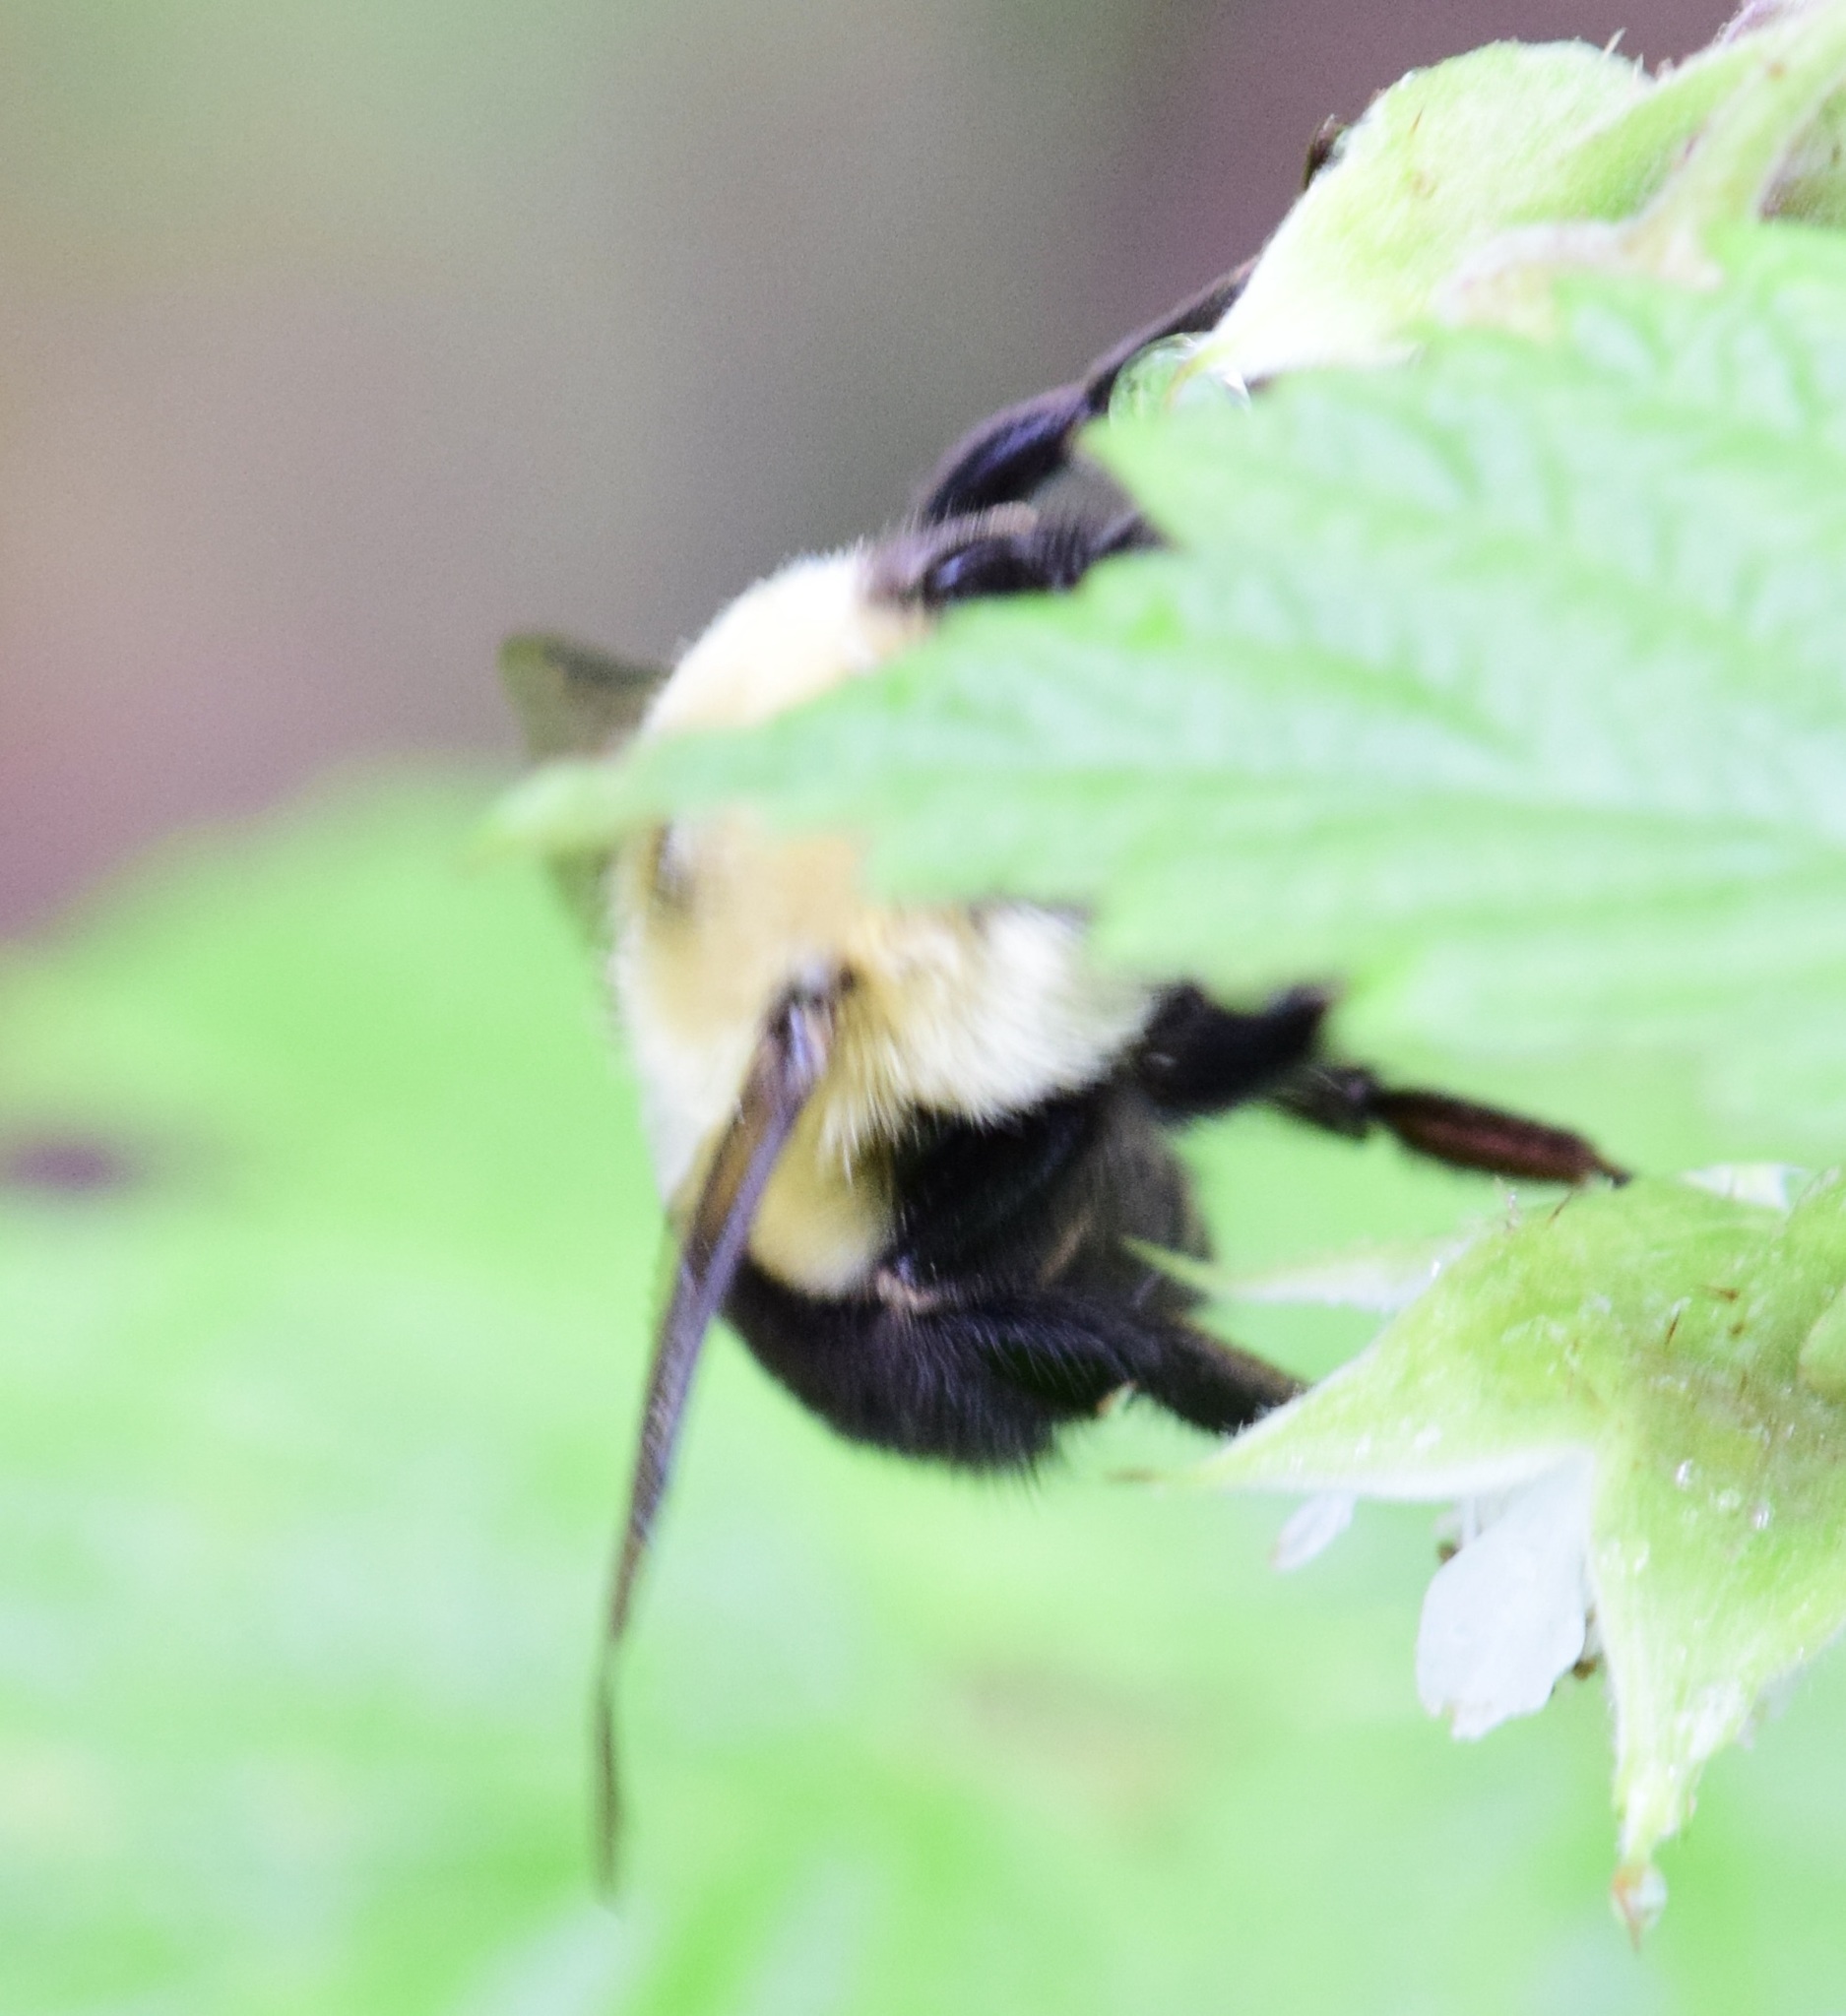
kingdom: Animalia
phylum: Arthropoda
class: Insecta
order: Hymenoptera
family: Apidae
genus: Bombus
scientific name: Bombus bimaculatus
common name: Two-spotted bumble bee
